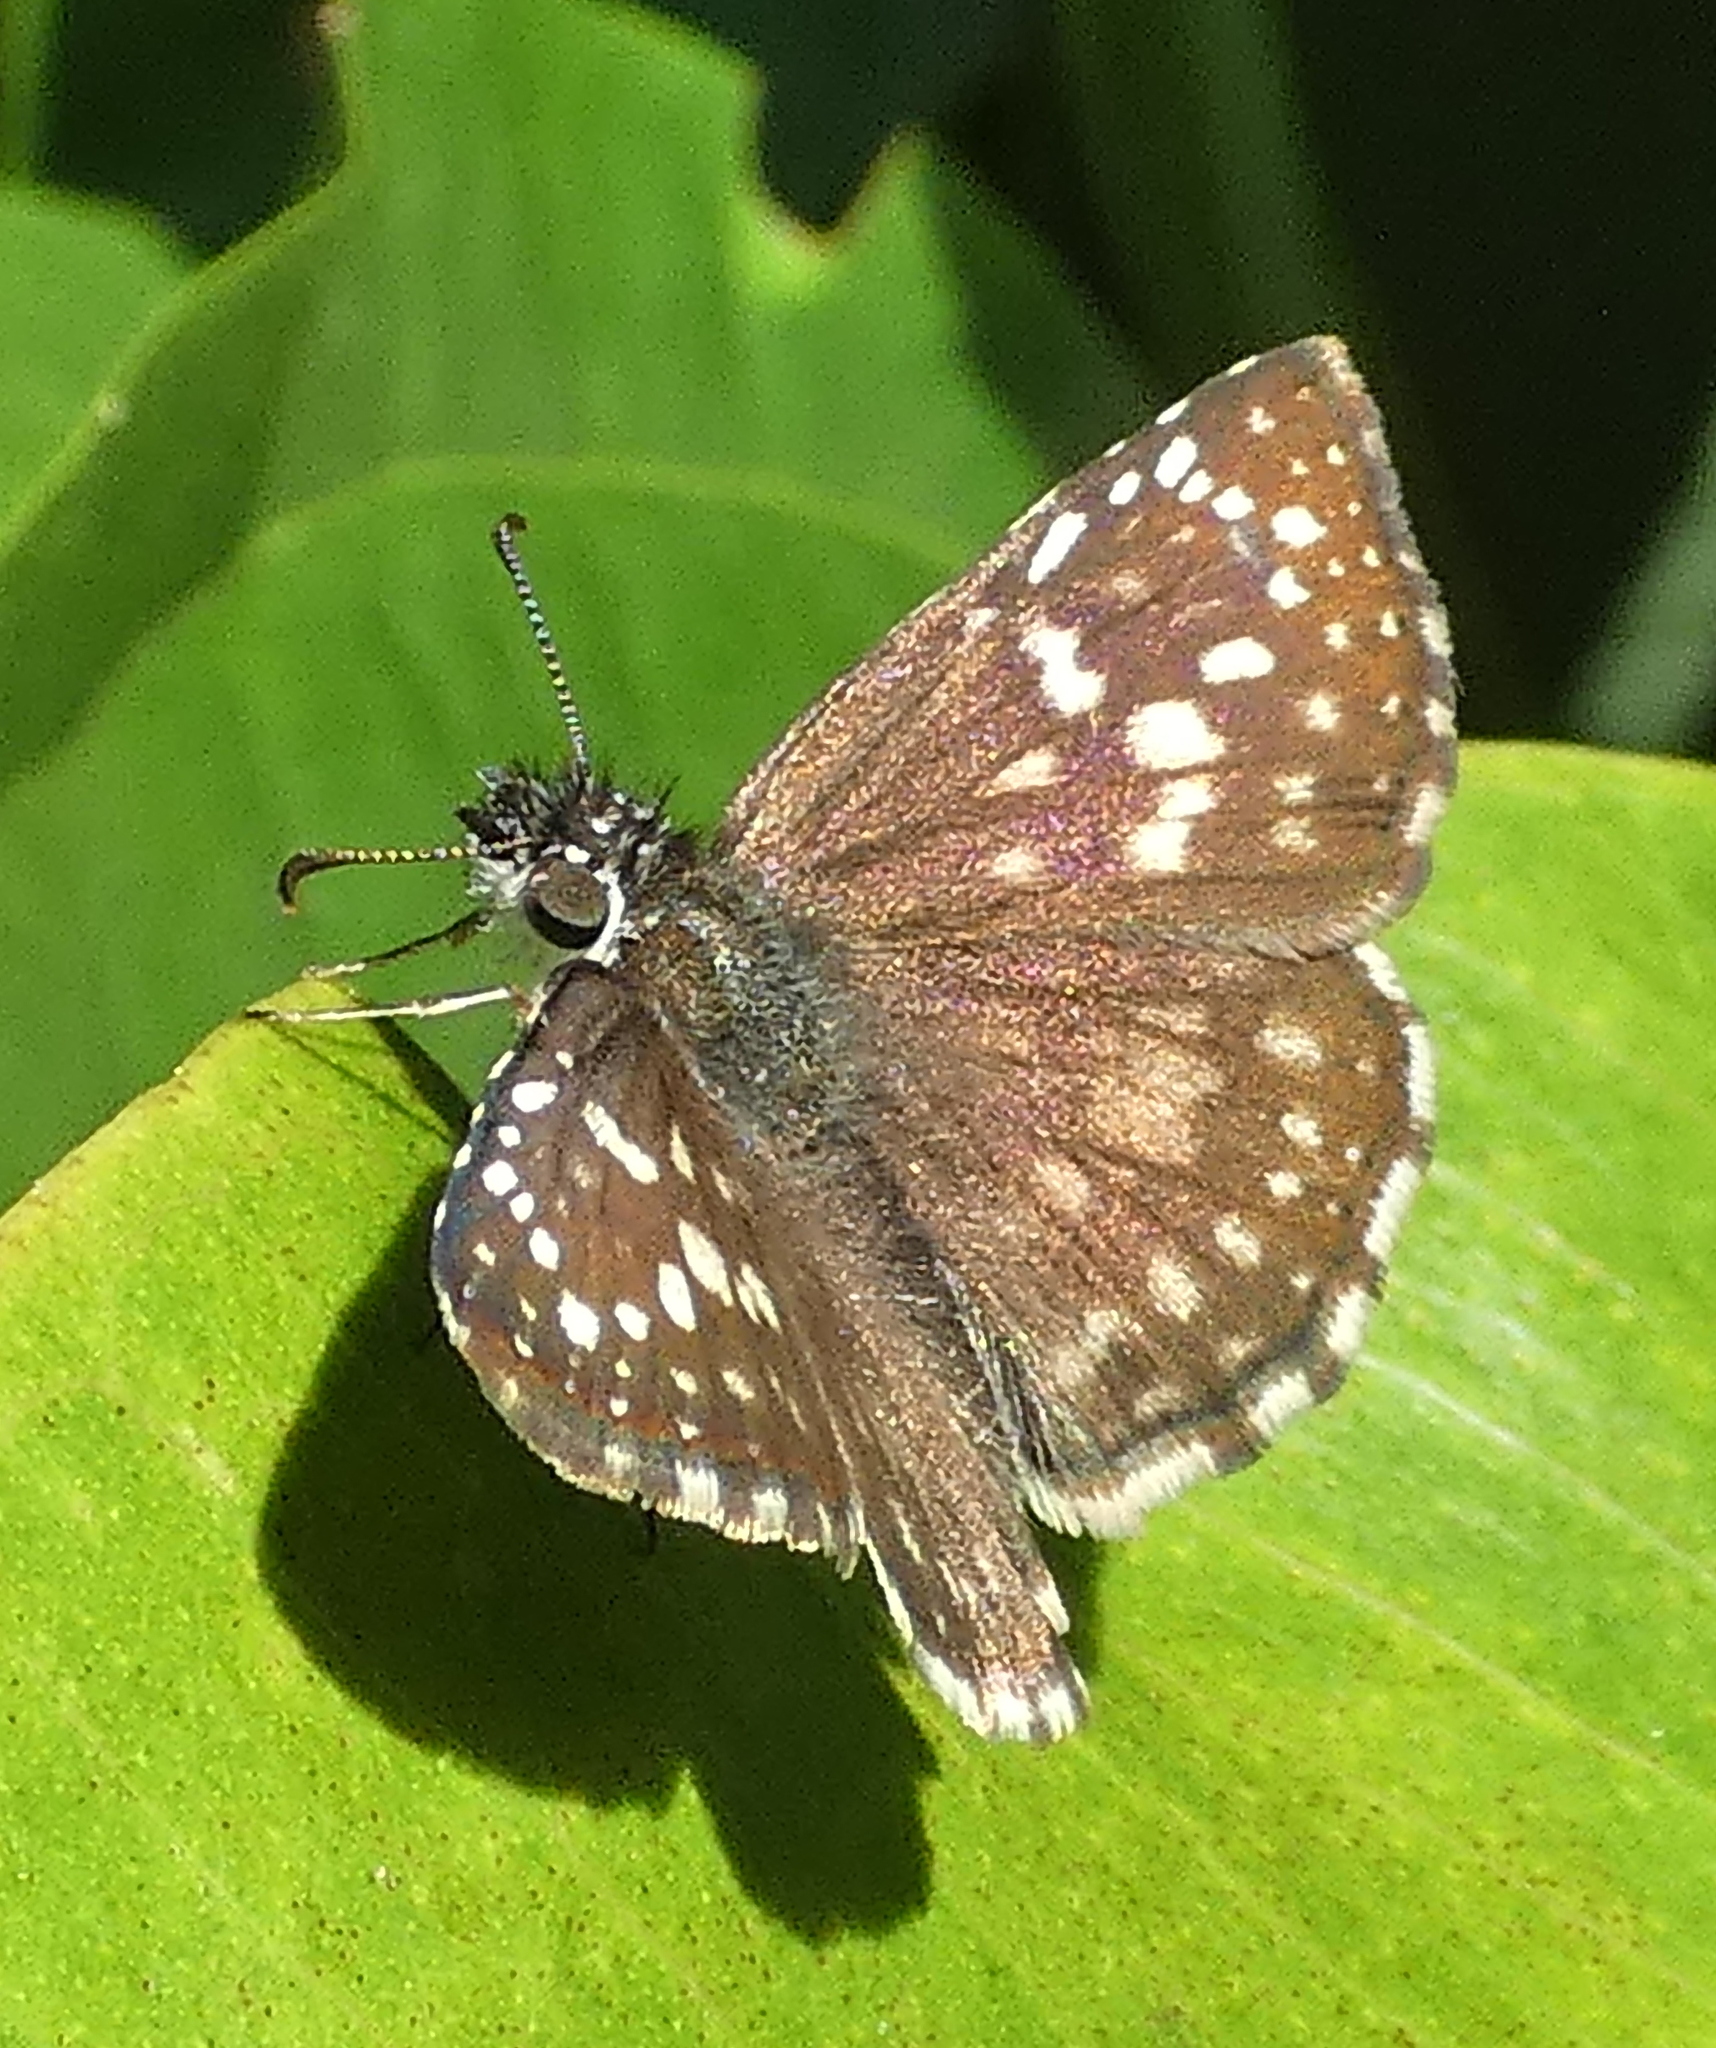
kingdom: Animalia
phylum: Arthropoda
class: Insecta
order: Lepidoptera
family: Hesperiidae
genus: Pyrgus
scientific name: Pyrgus oileus
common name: Tropical checkered-skipper
